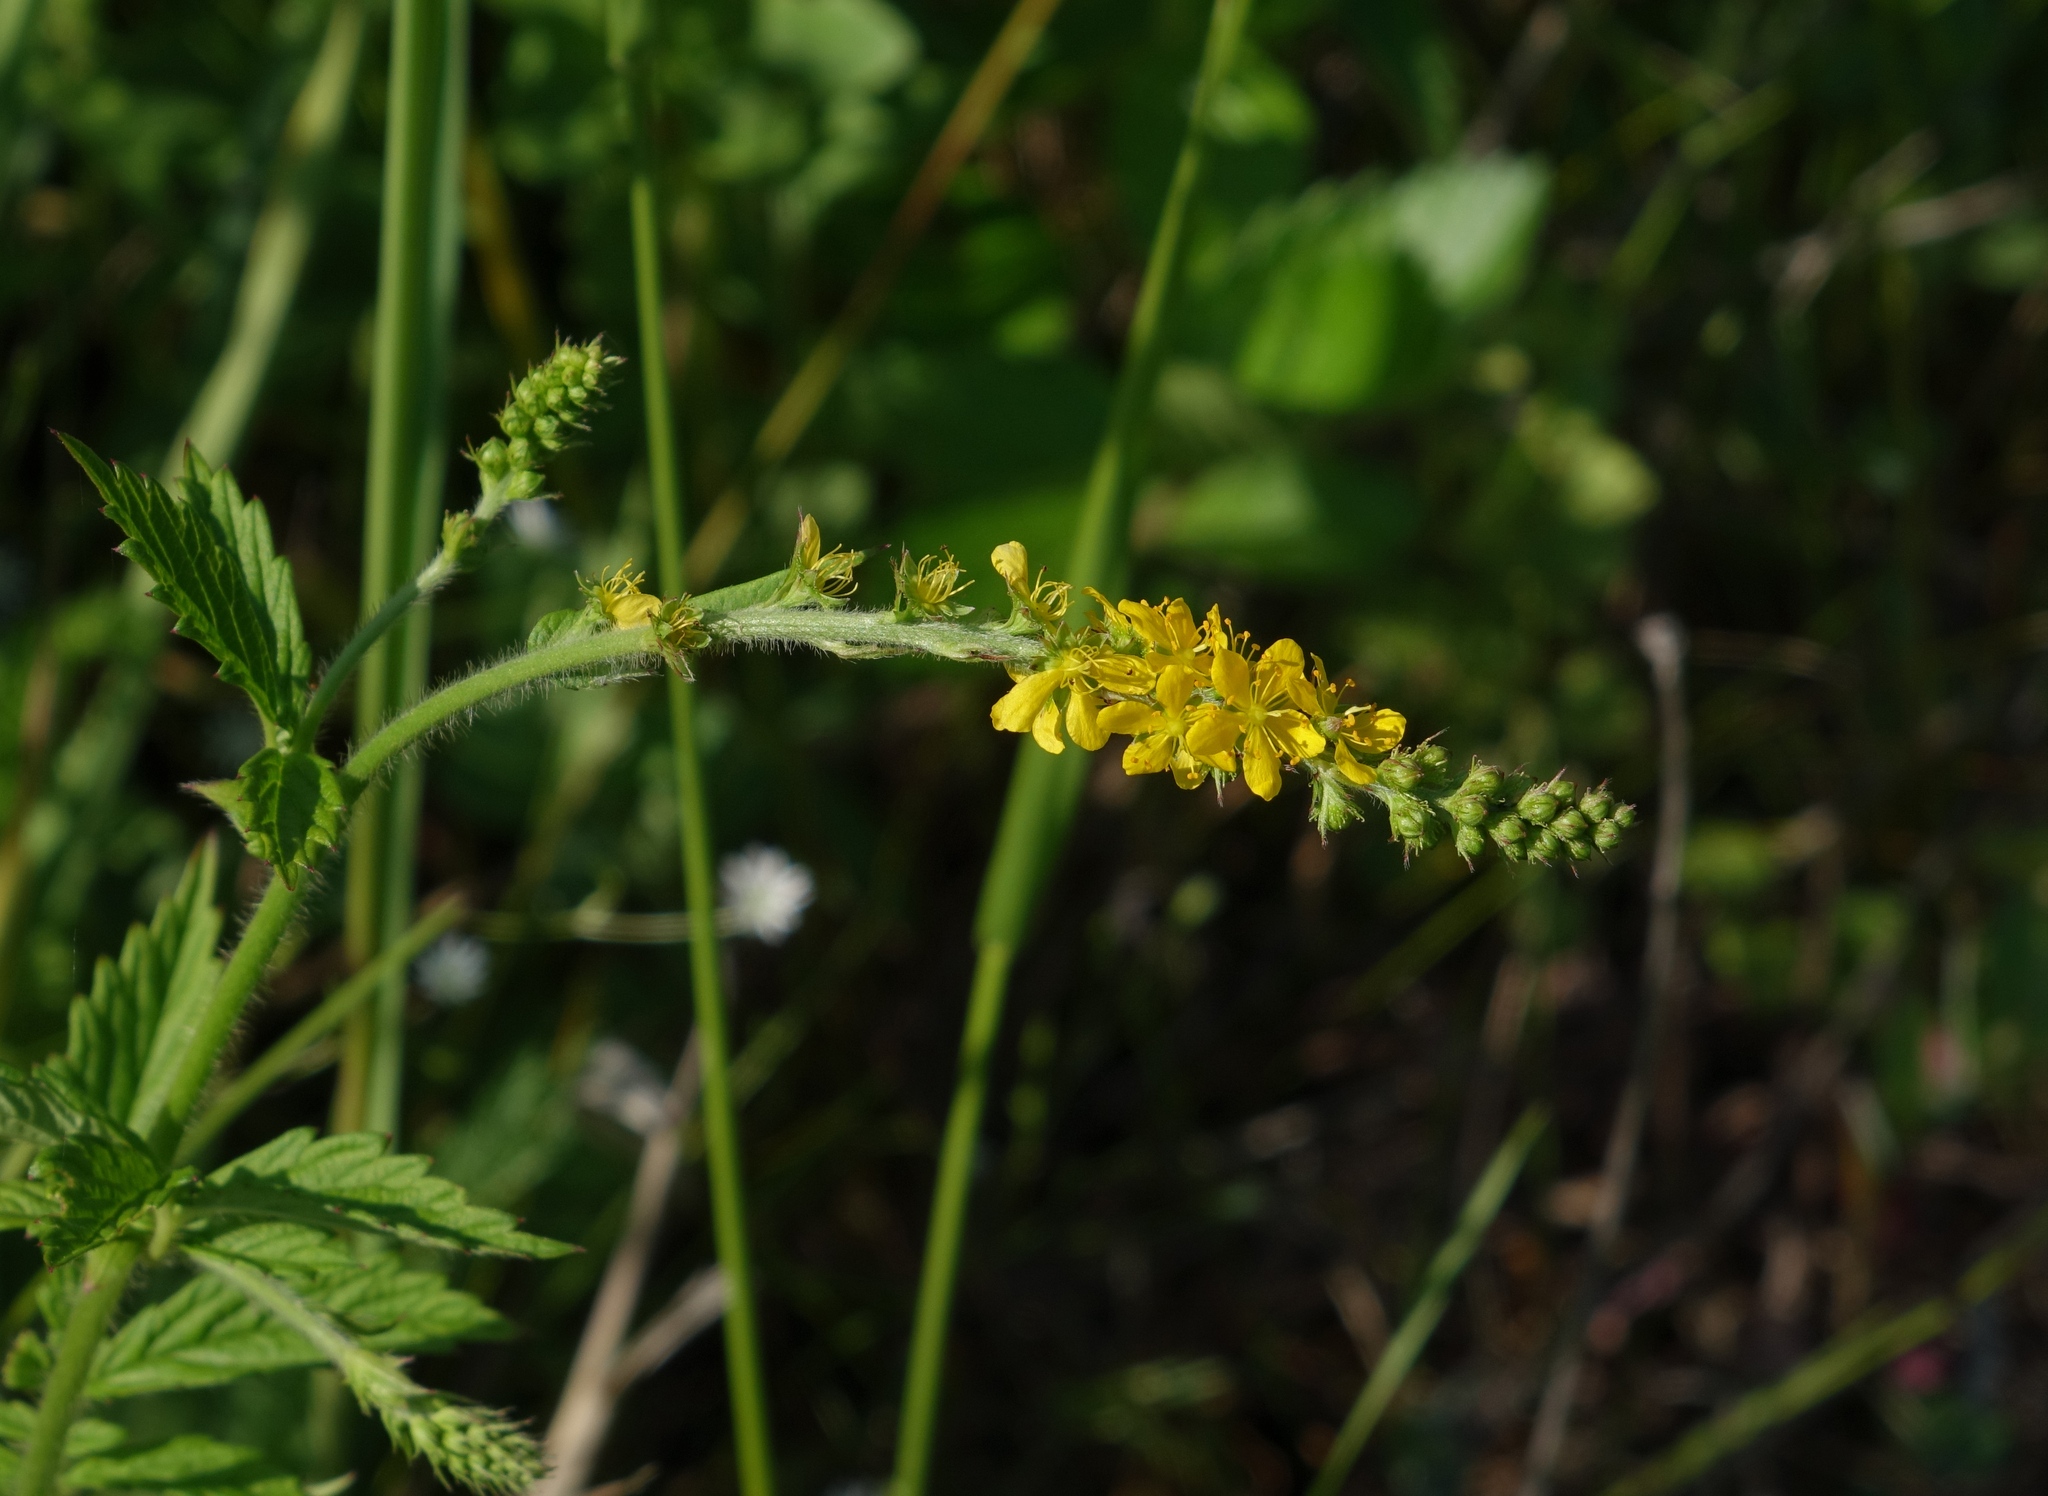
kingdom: Plantae
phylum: Tracheophyta
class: Magnoliopsida
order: Rosales
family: Rosaceae
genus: Agrimonia
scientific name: Agrimonia pilosa
